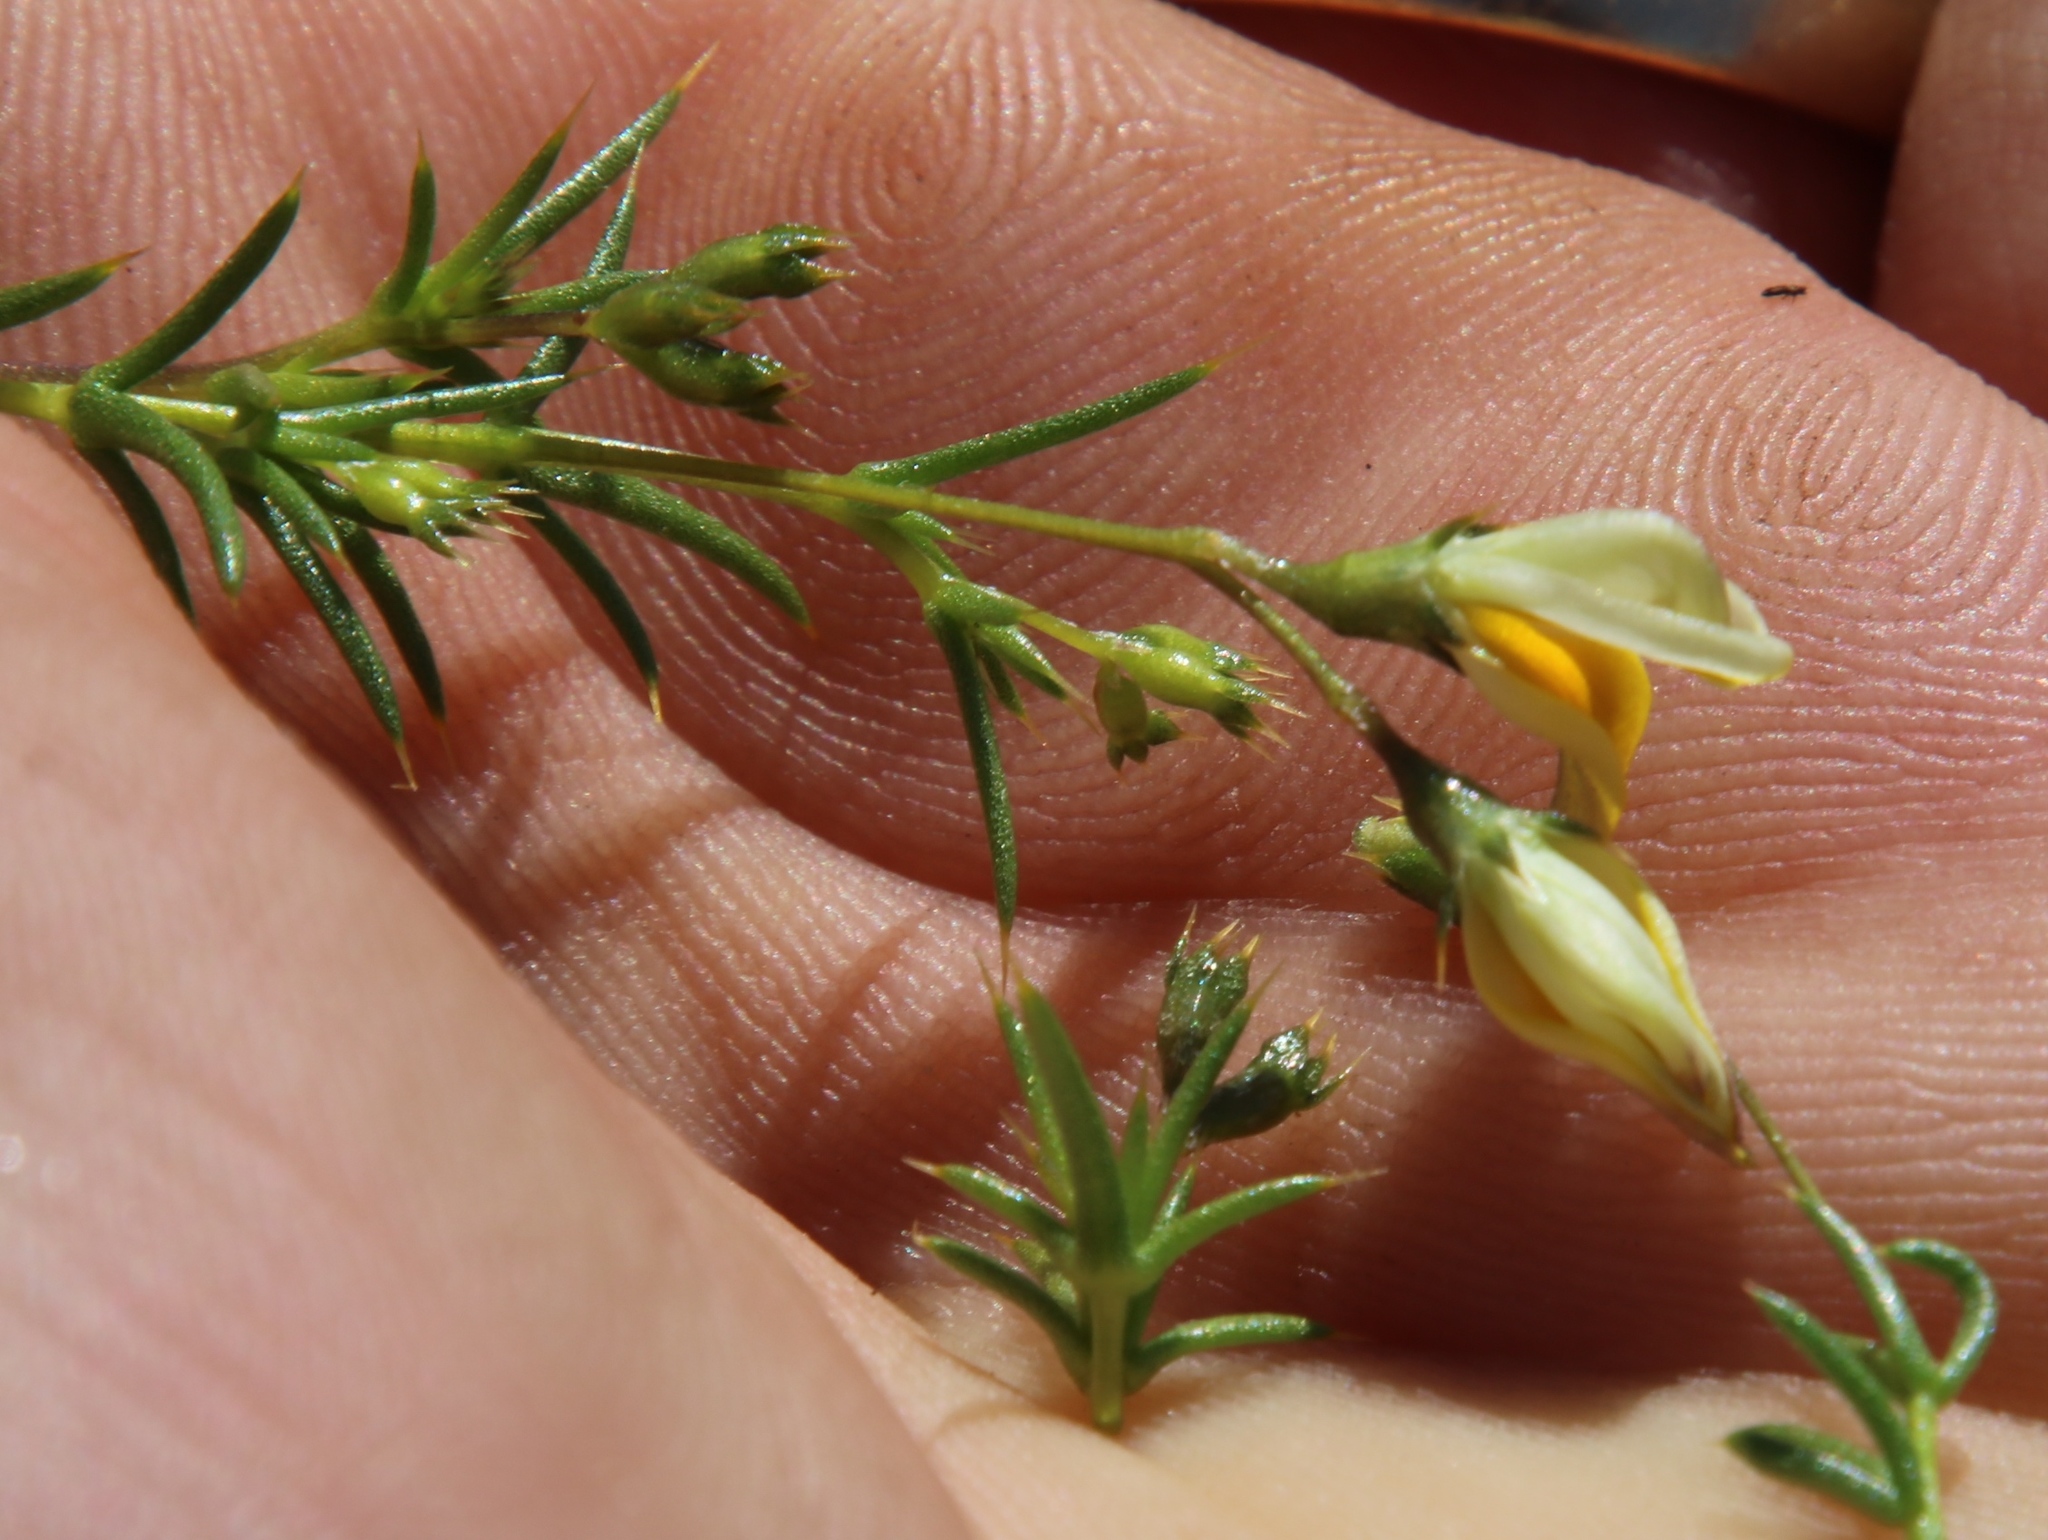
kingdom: Plantae
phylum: Tracheophyta
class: Magnoliopsida
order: Fabales
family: Fabaceae
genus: Aspalathus
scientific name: Aspalathus spinosissima
